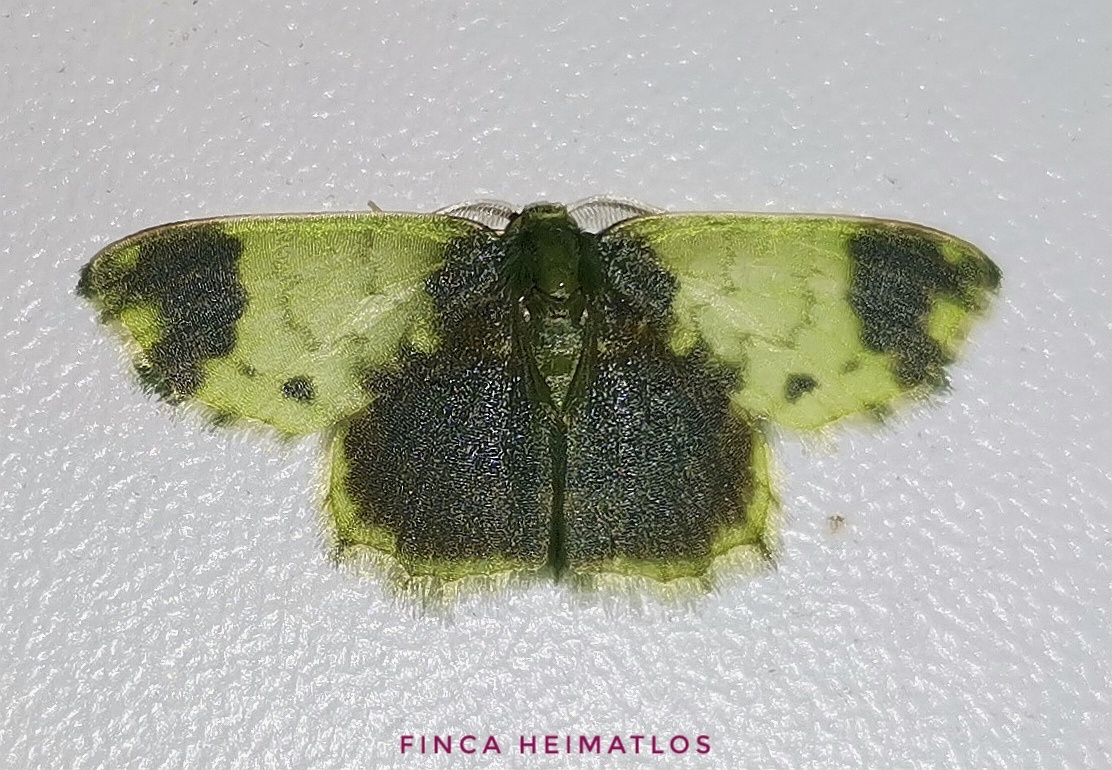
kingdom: Animalia
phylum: Arthropoda
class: Insecta
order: Lepidoptera
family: Geometridae
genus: Hydata
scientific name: Hydata pellucidaria
